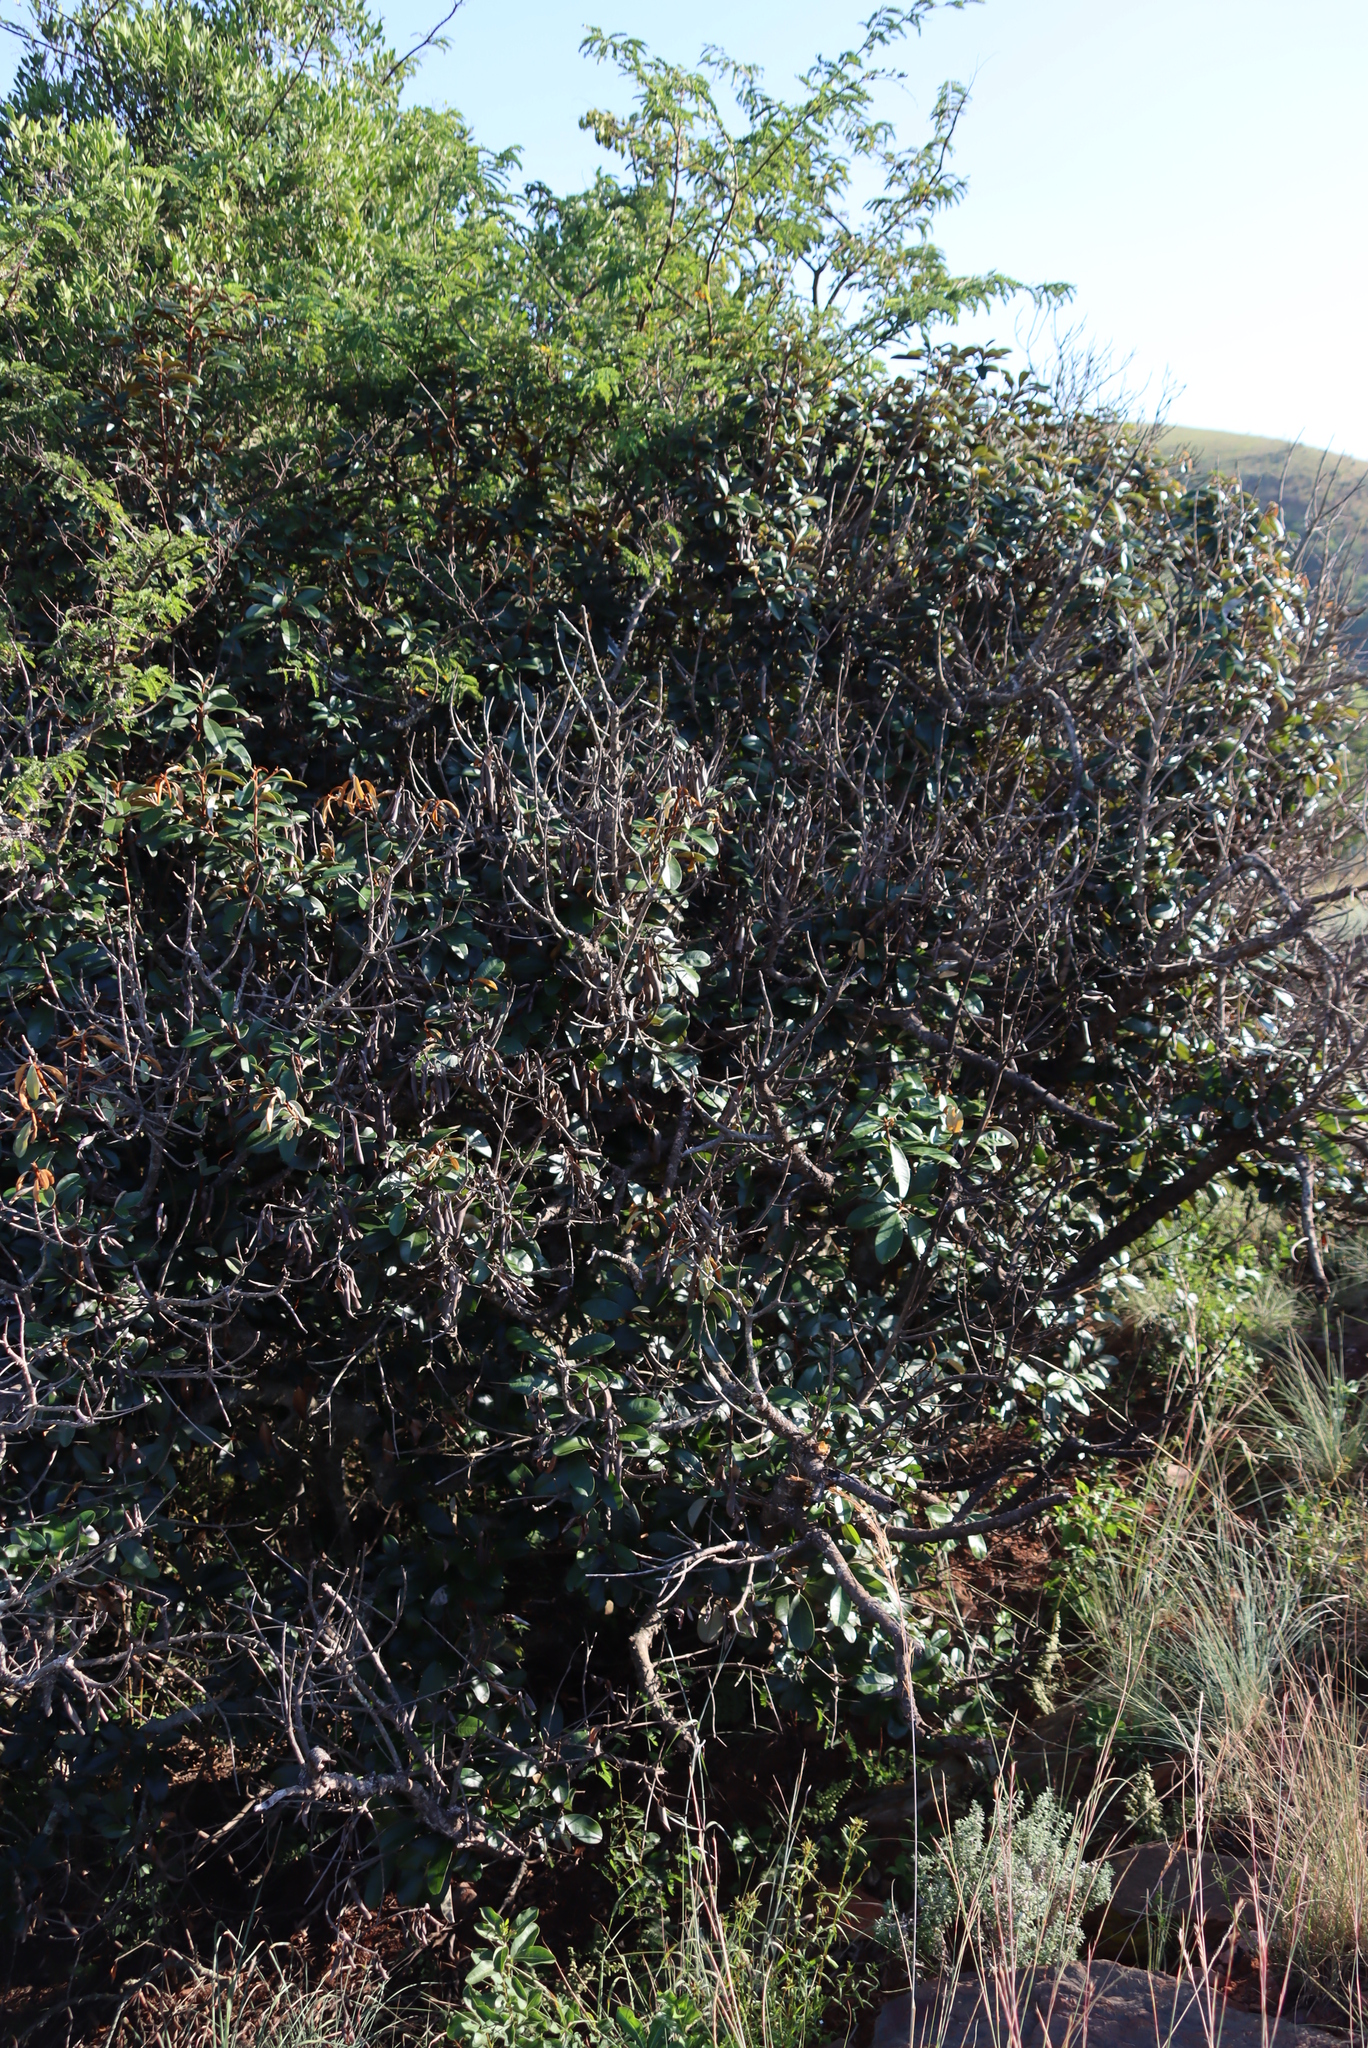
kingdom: Plantae
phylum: Tracheophyta
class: Magnoliopsida
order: Ericales
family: Sapotaceae
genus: Englerophytum
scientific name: Englerophytum magalismontanum
